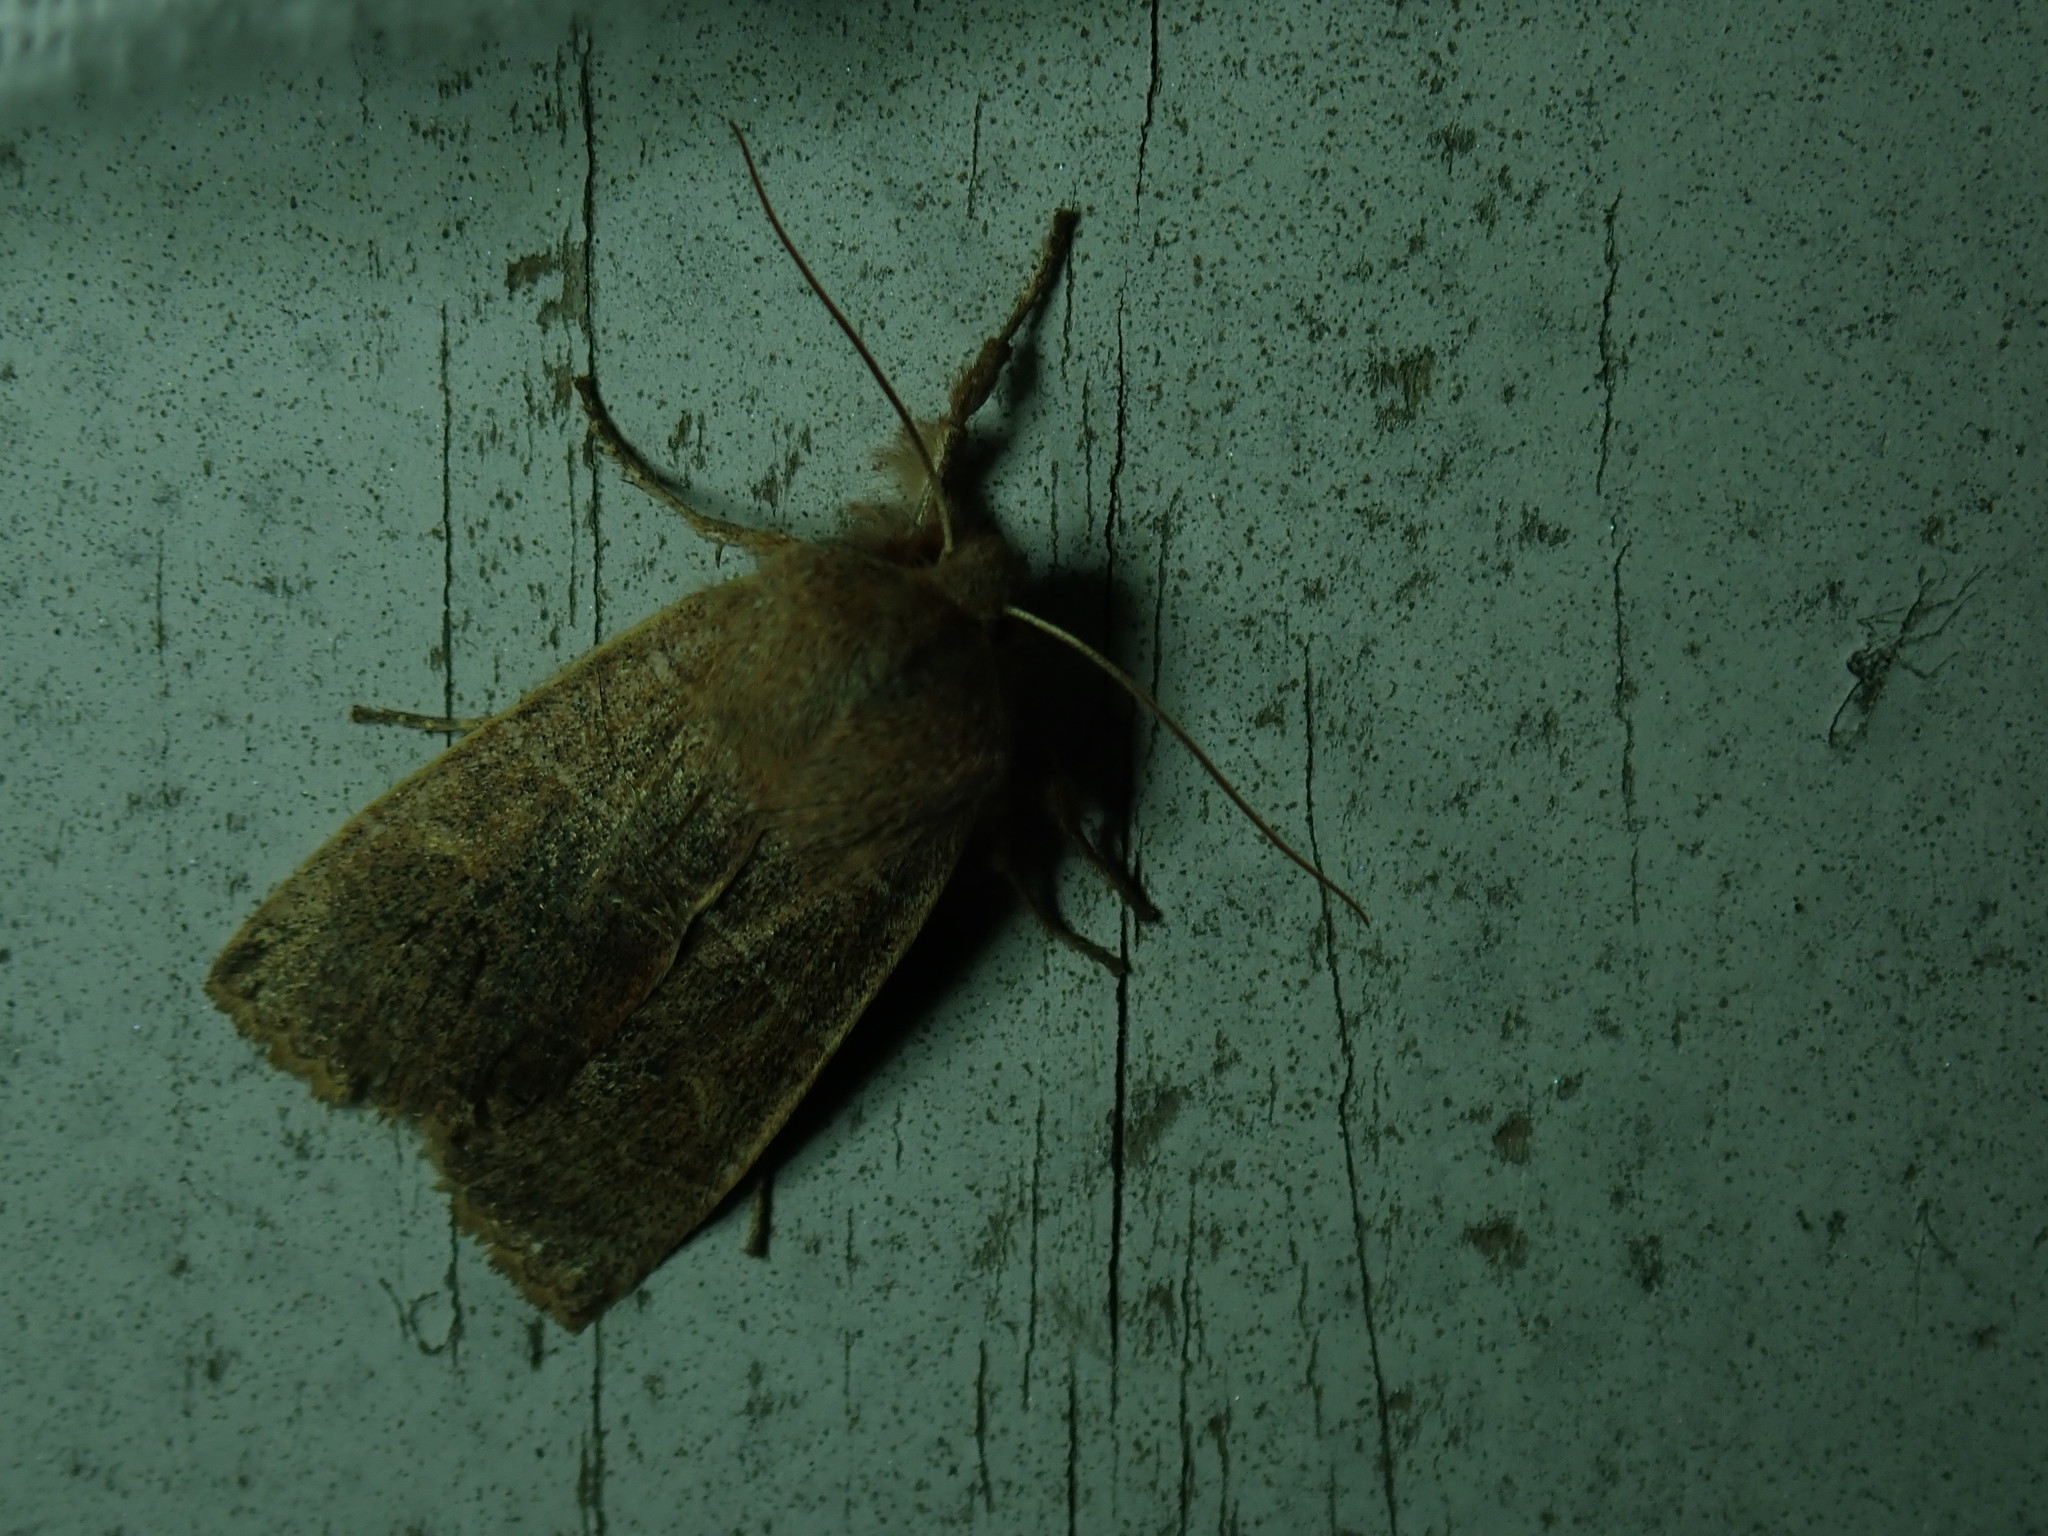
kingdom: Animalia
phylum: Arthropoda
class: Insecta
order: Lepidoptera
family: Noctuidae
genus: Eupsilia
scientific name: Eupsilia morrisoni
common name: Morrison's sallow
